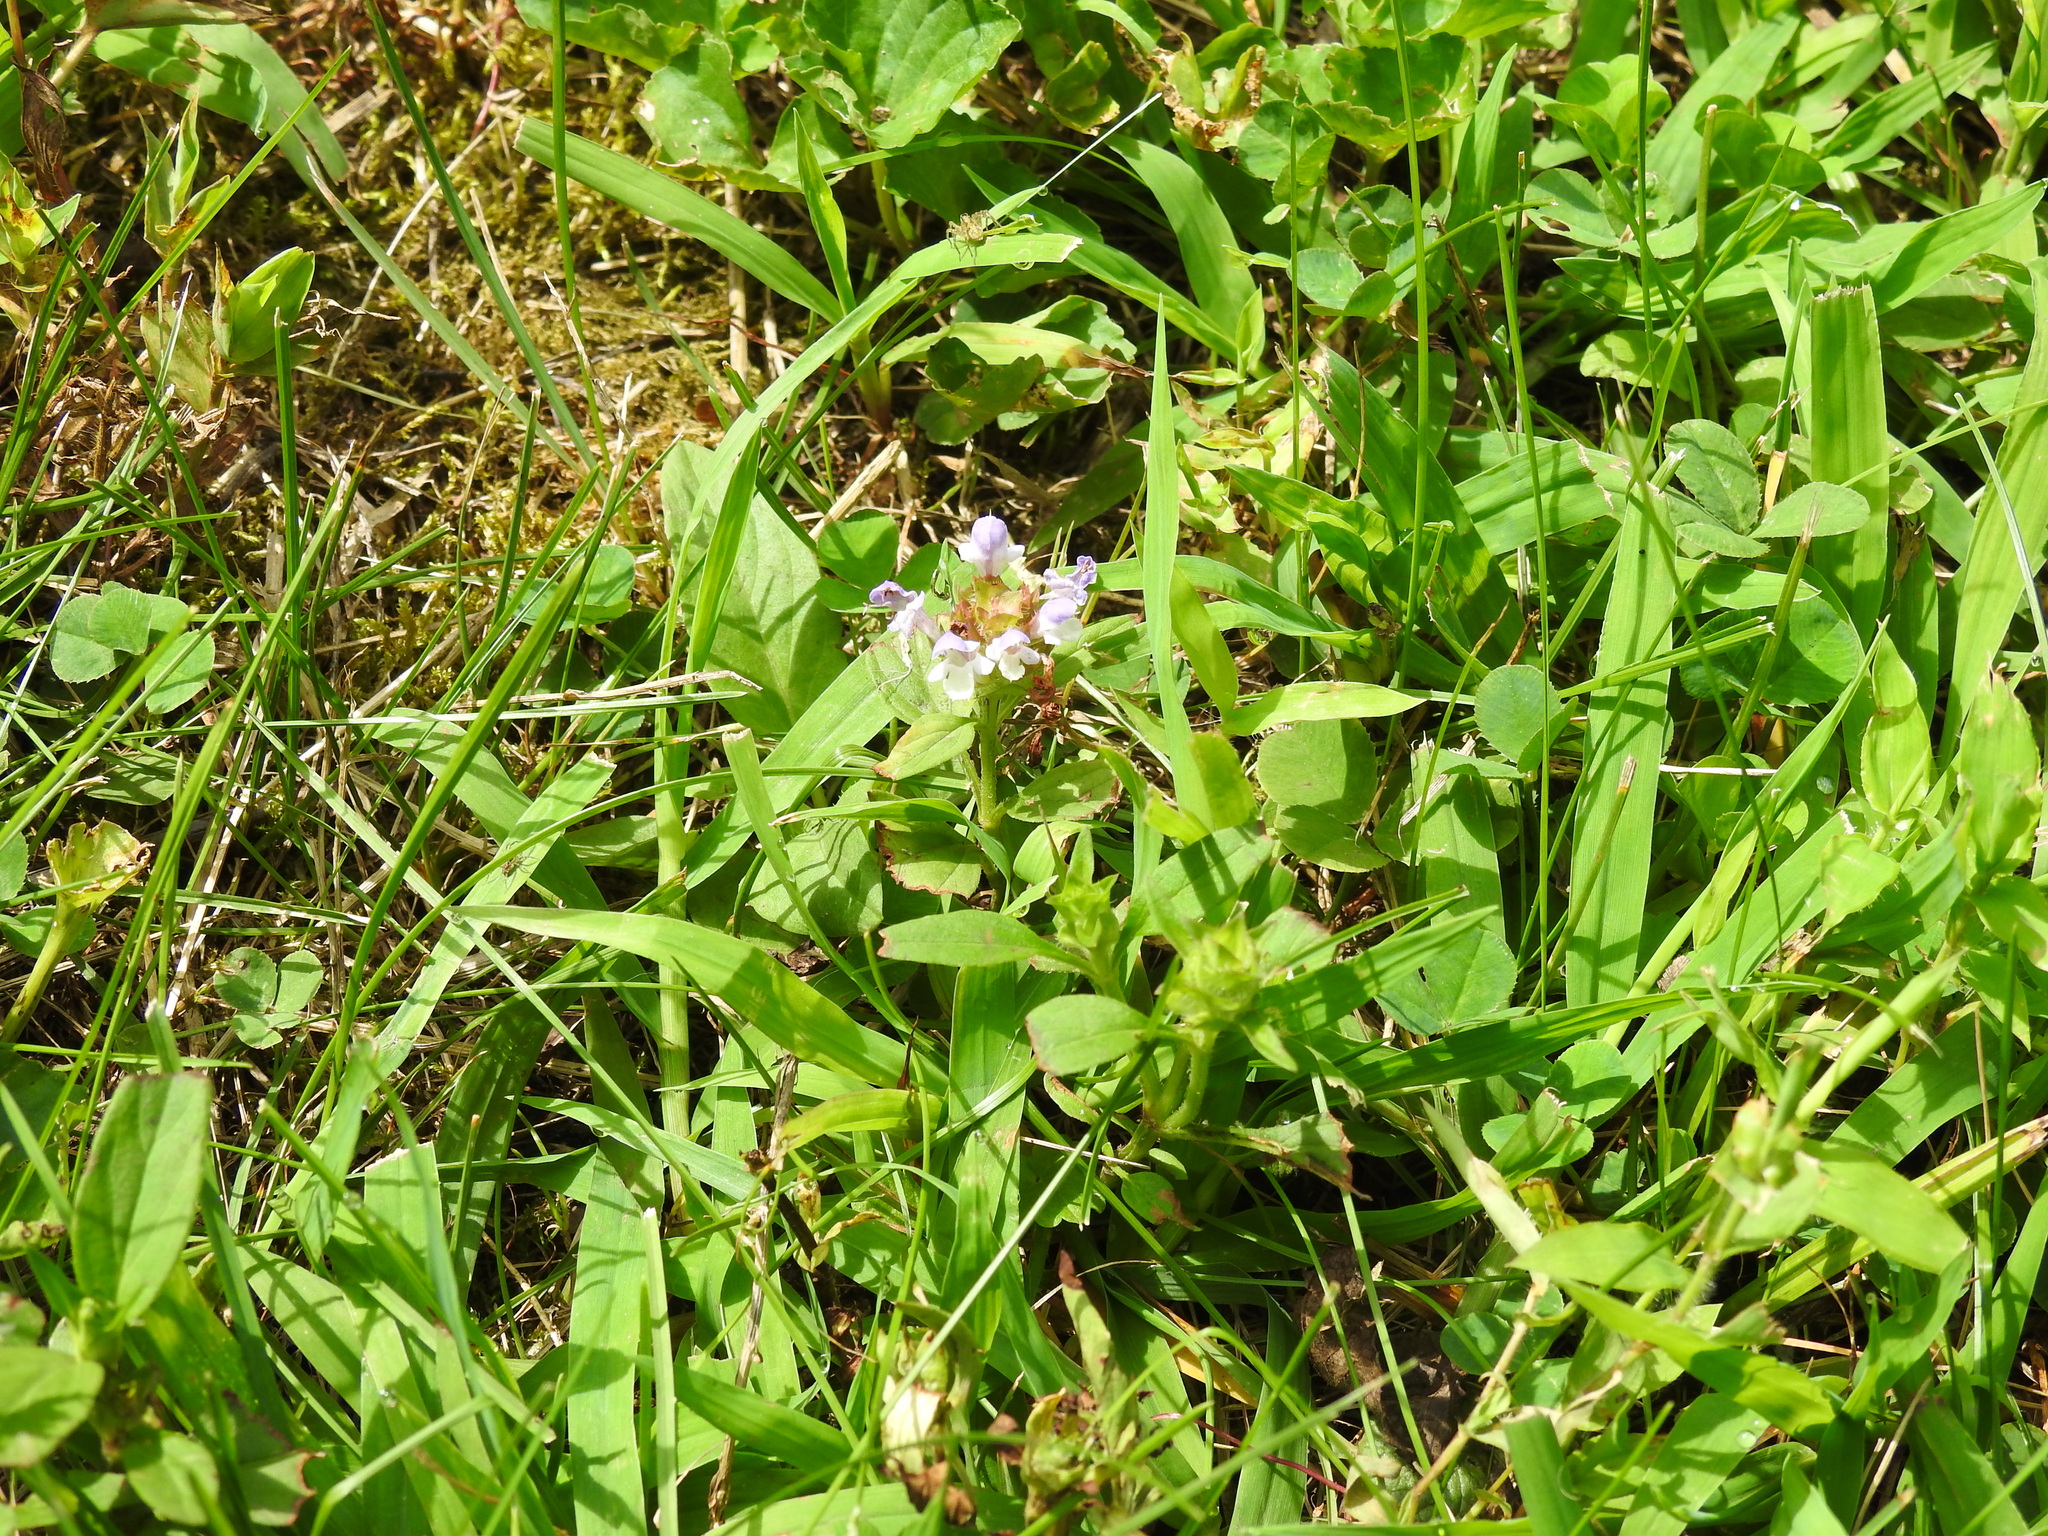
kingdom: Plantae
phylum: Tracheophyta
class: Magnoliopsida
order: Lamiales
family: Lamiaceae
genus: Prunella
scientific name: Prunella vulgaris
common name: Heal-all
